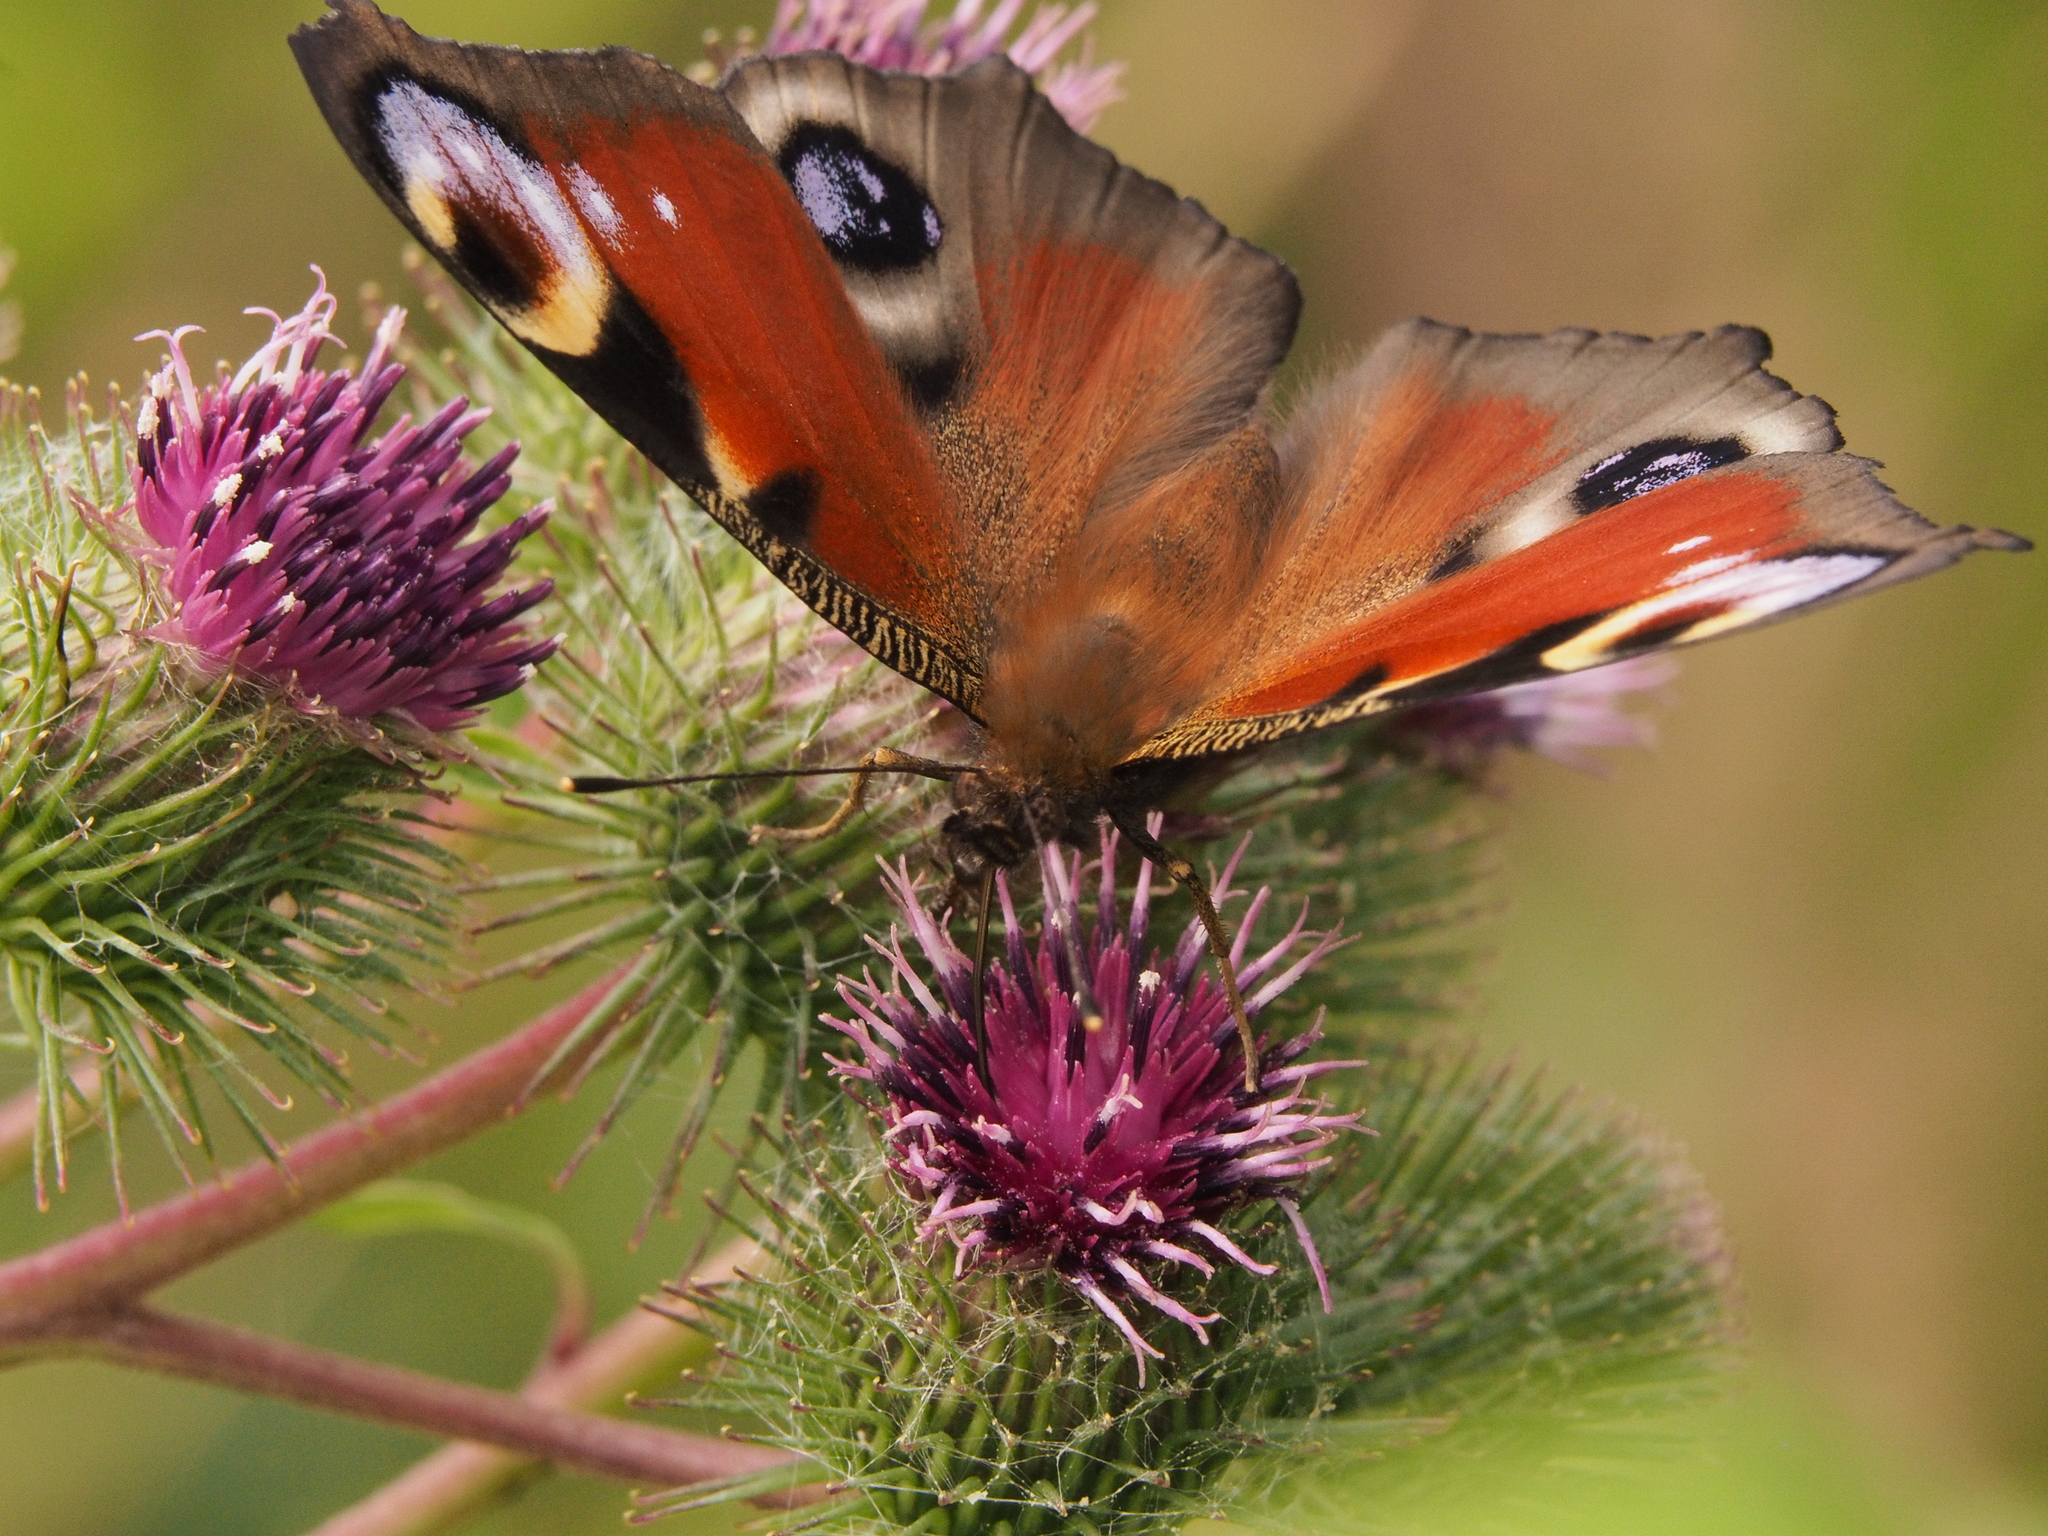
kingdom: Animalia
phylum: Arthropoda
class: Insecta
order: Lepidoptera
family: Nymphalidae
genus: Aglais
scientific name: Aglais io
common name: Peacock
